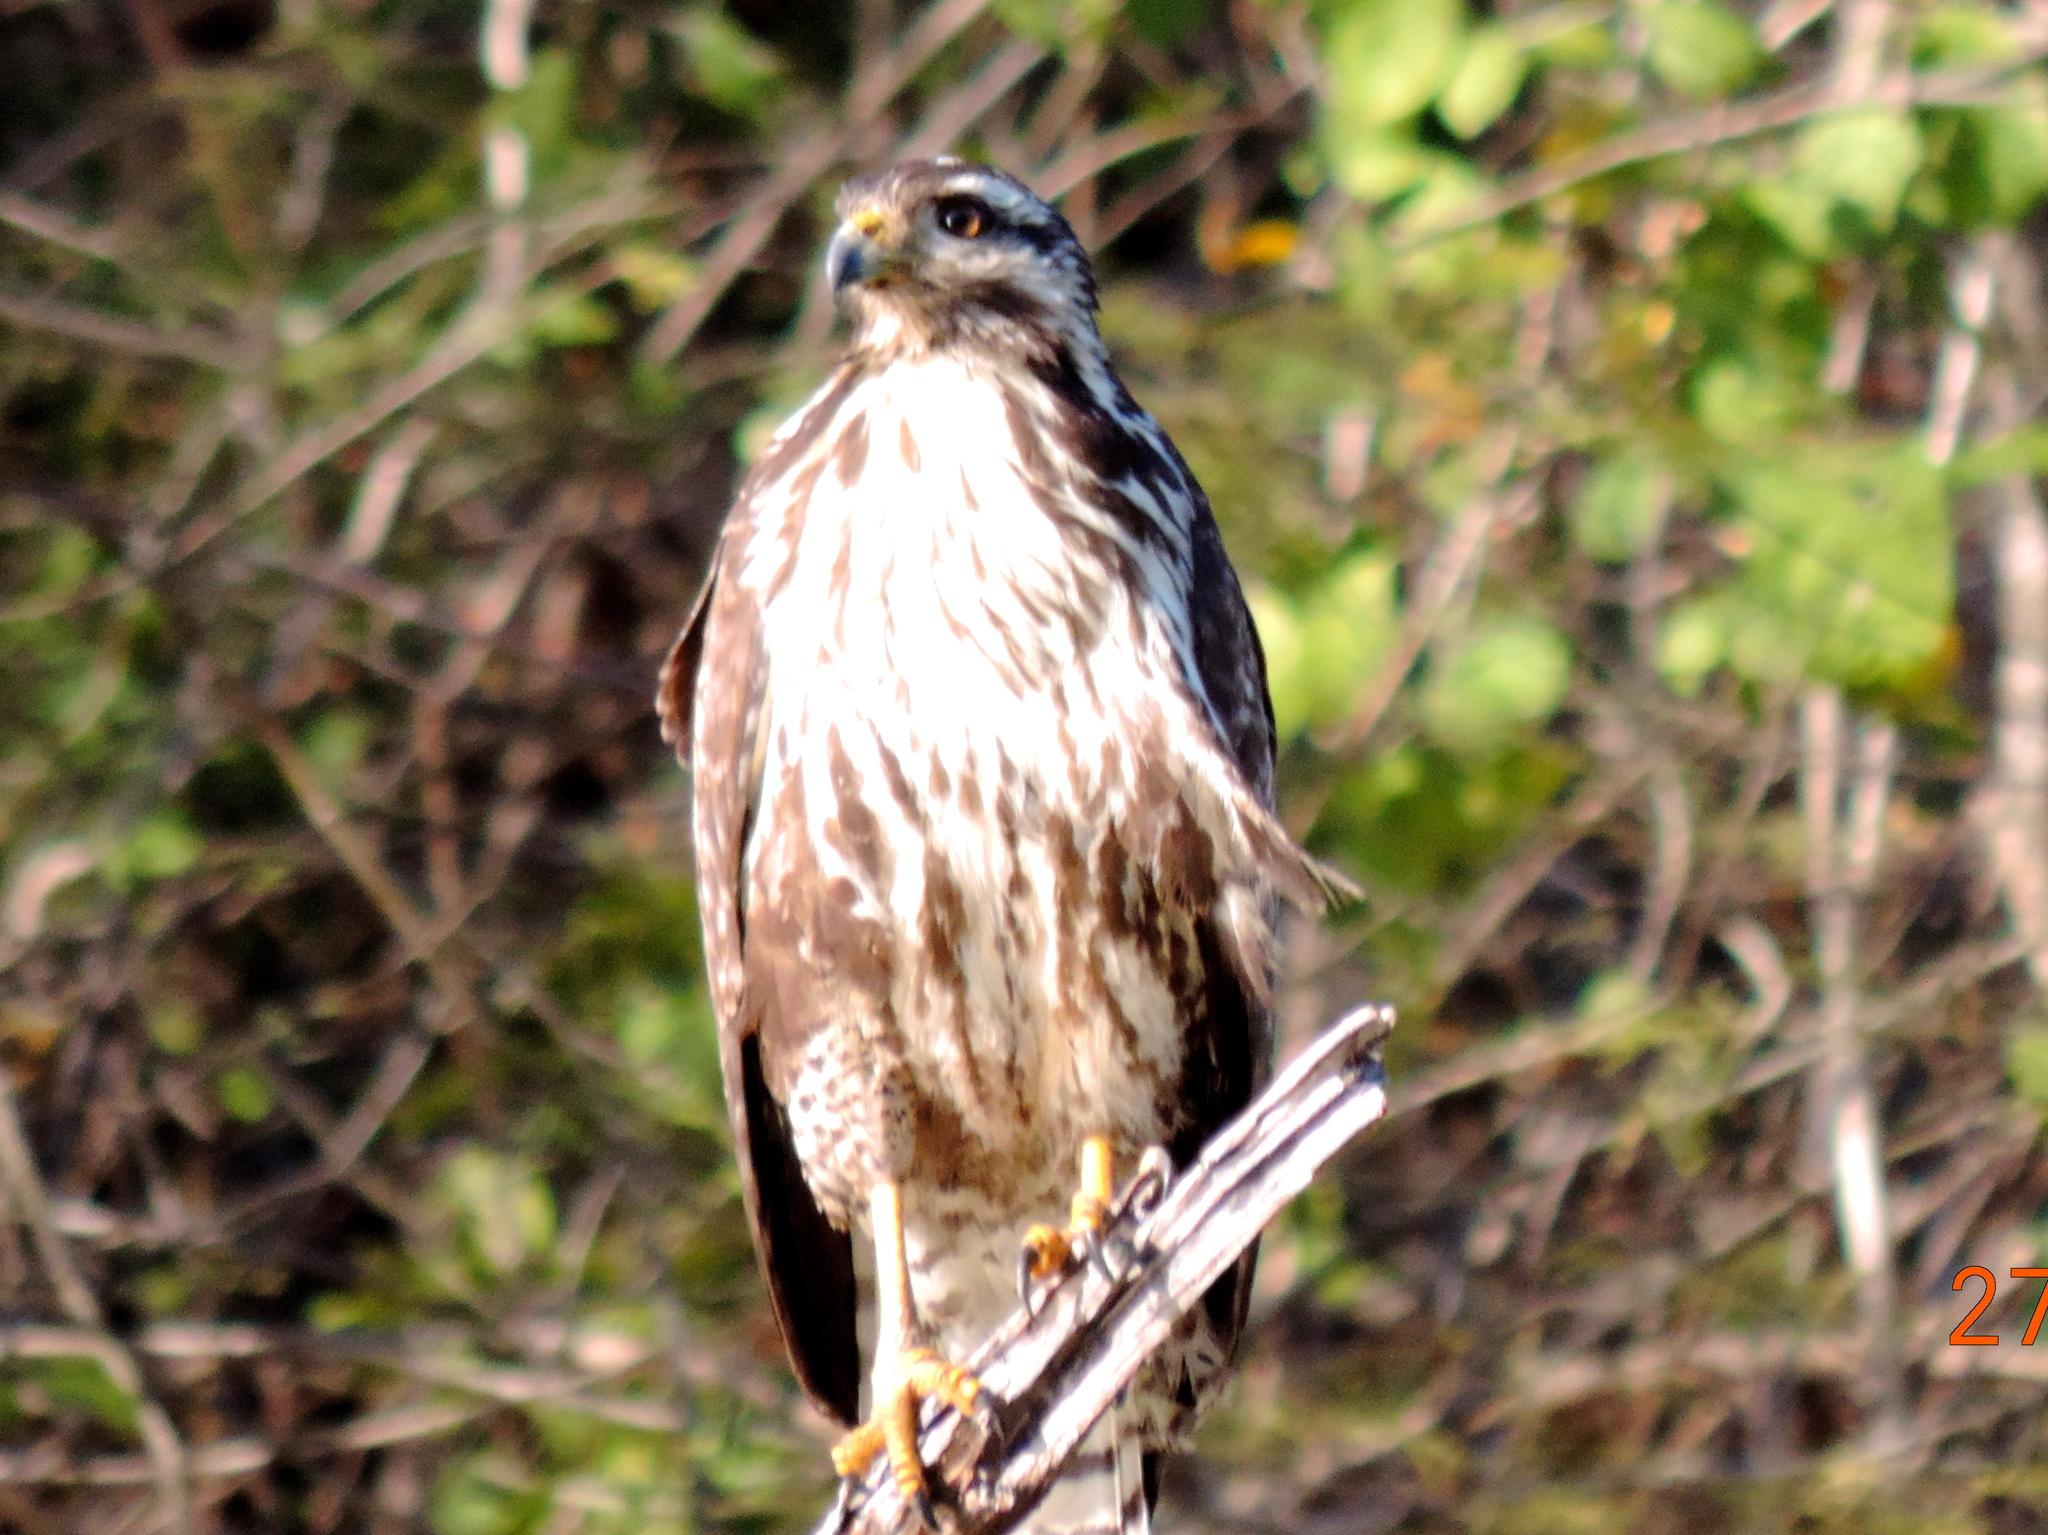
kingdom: Animalia
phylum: Chordata
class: Aves
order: Accipitriformes
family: Accipitridae
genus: Buteo
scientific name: Buteo nitidus
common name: Grey-lined hawk
